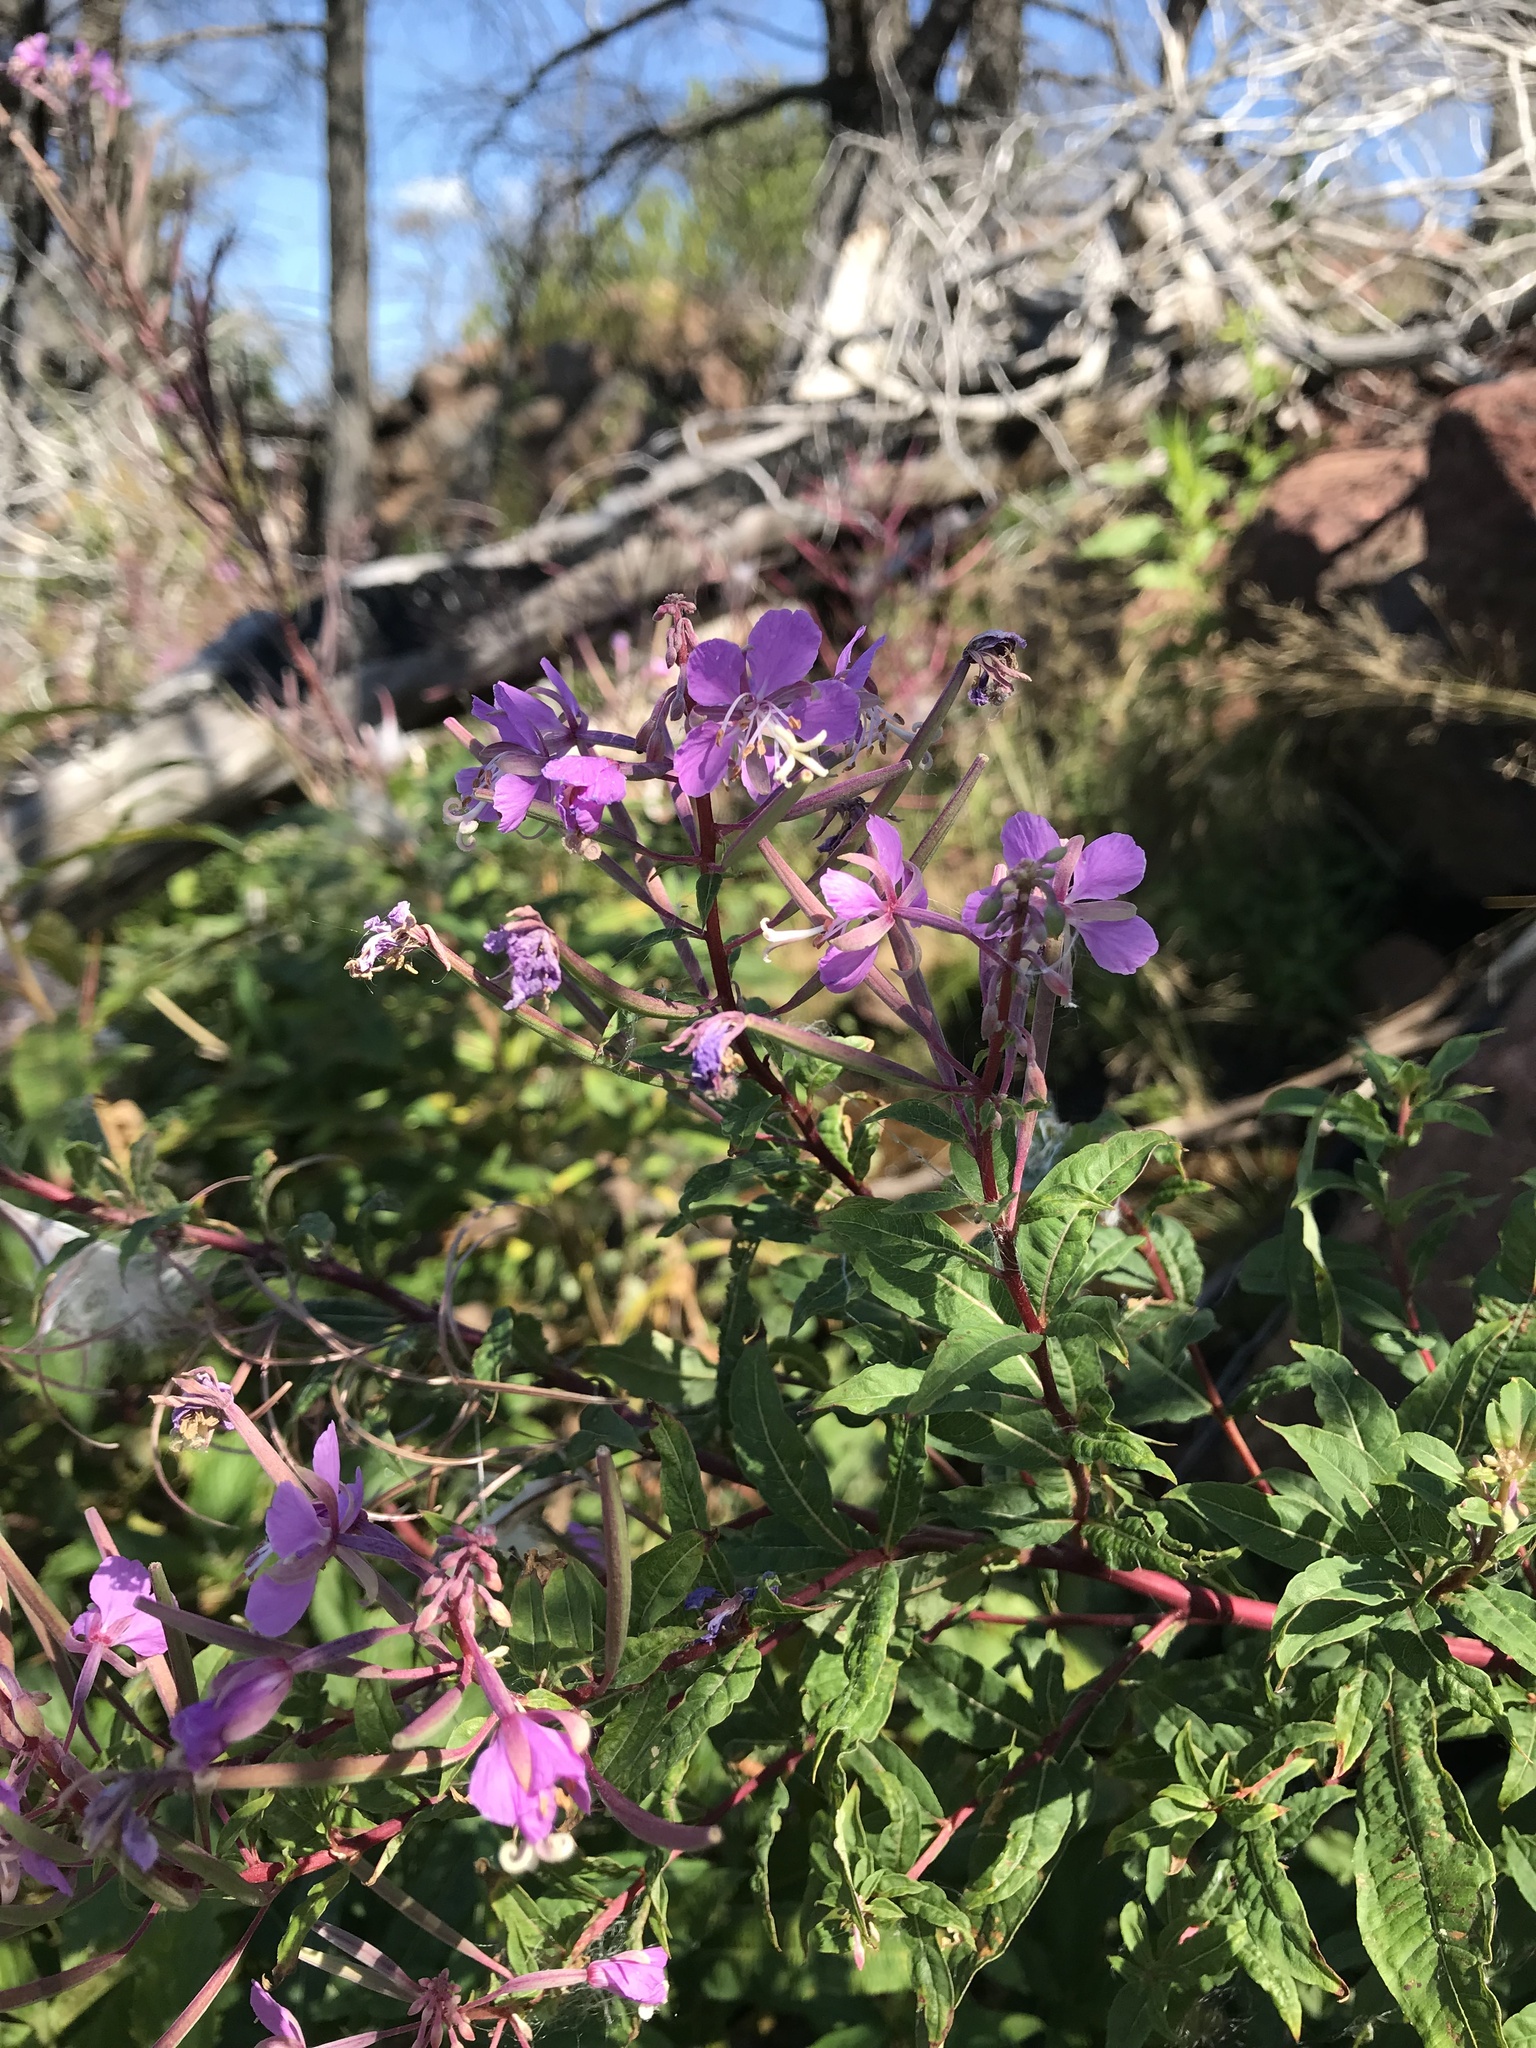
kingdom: Plantae
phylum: Tracheophyta
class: Magnoliopsida
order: Myrtales
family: Onagraceae
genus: Chamaenerion
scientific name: Chamaenerion angustifolium
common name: Fireweed
